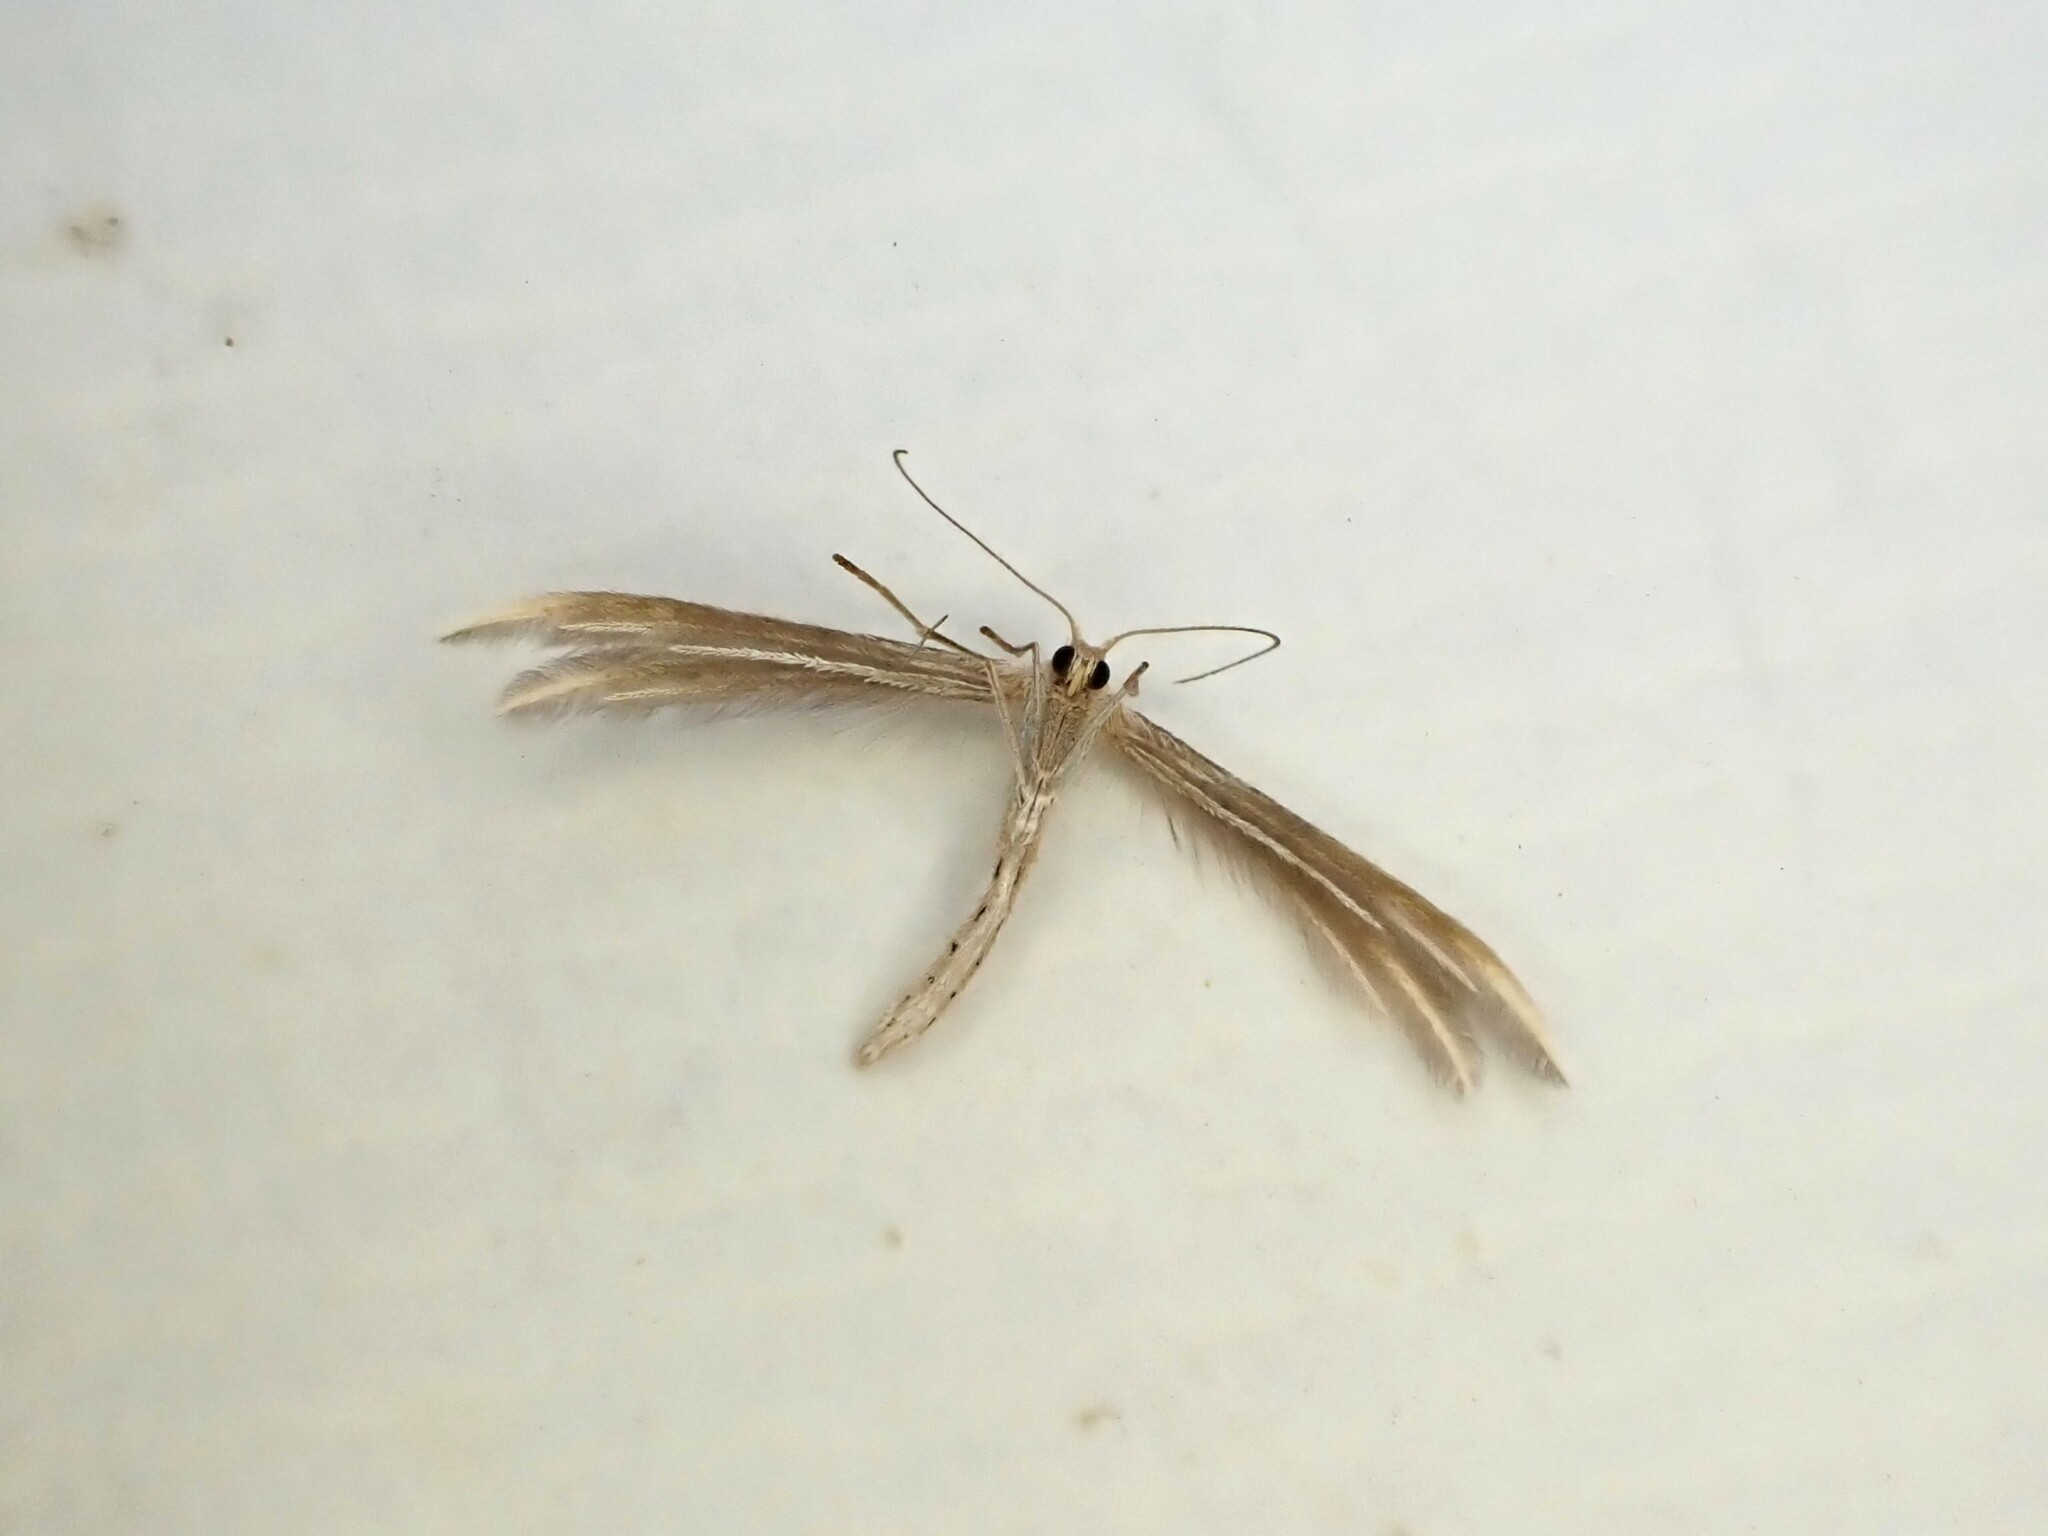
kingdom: Animalia
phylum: Arthropoda
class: Insecta
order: Lepidoptera
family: Pterophoridae
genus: Pterophorus
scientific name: Pterophorus innotatalis
